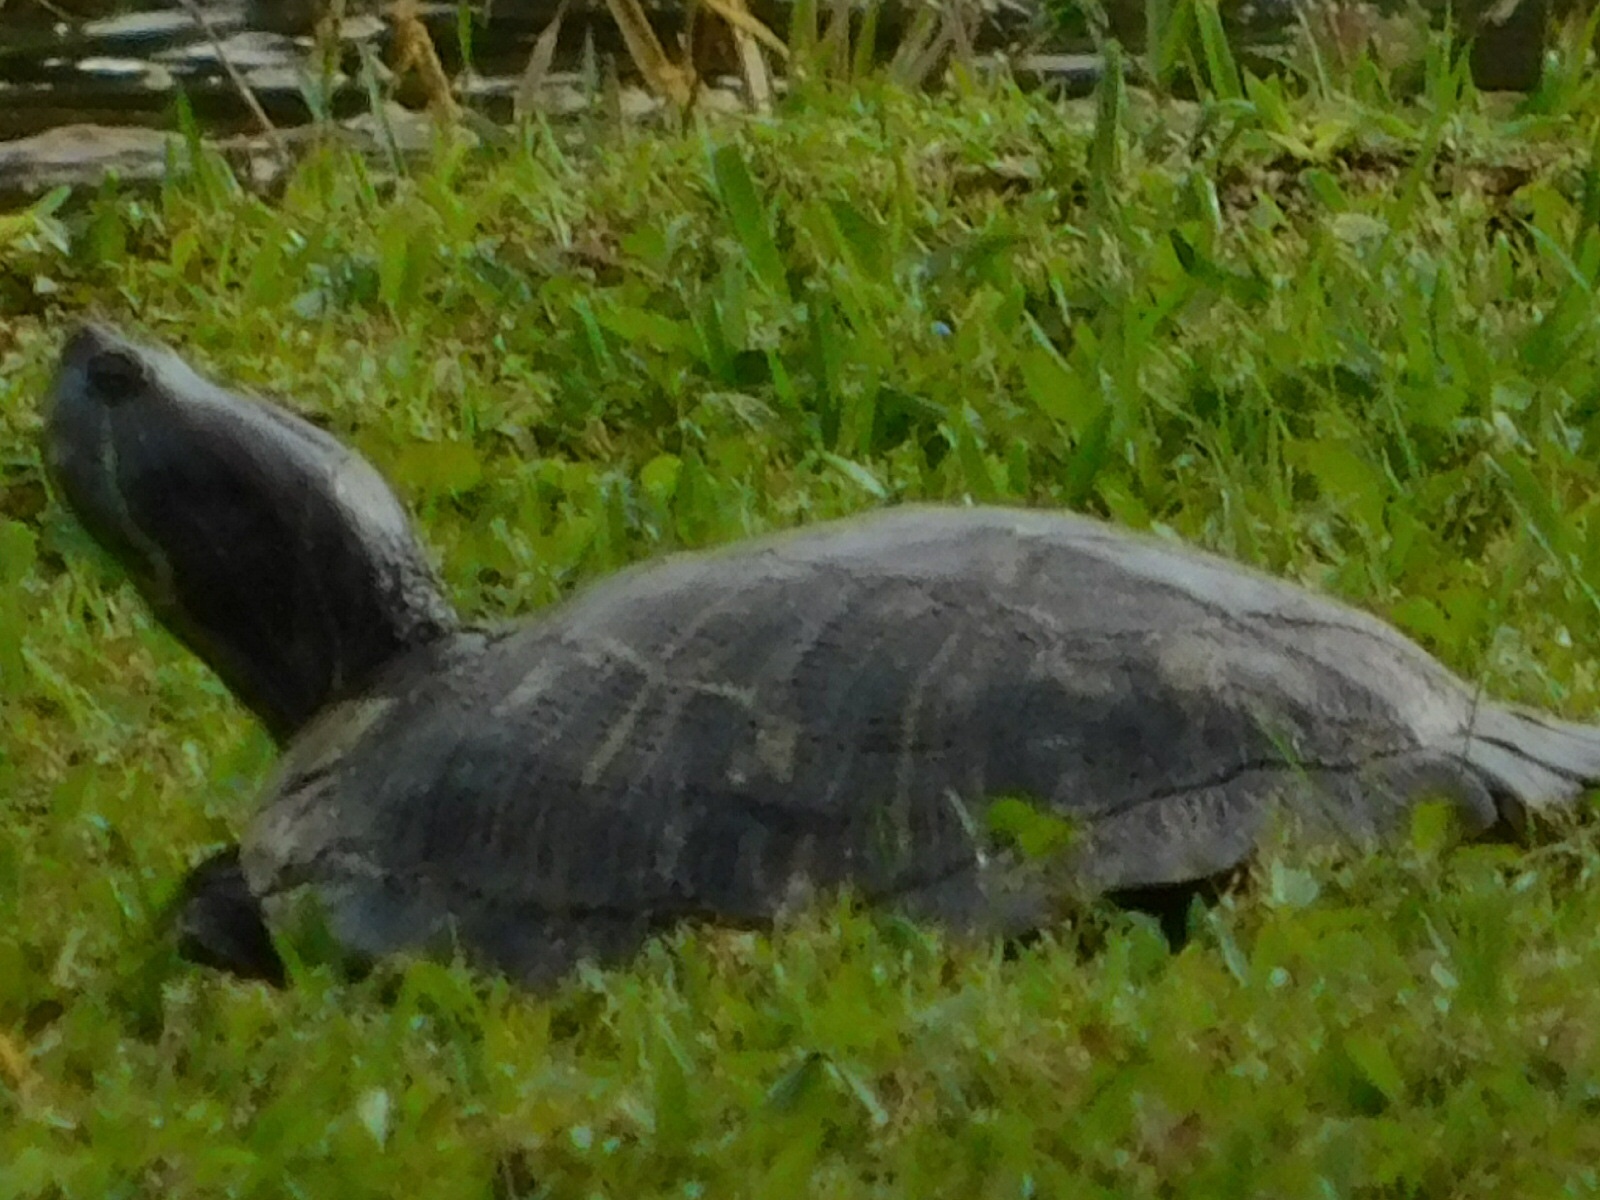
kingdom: Animalia
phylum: Chordata
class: Testudines
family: Emydidae
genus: Trachemys
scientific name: Trachemys scripta
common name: Slider
